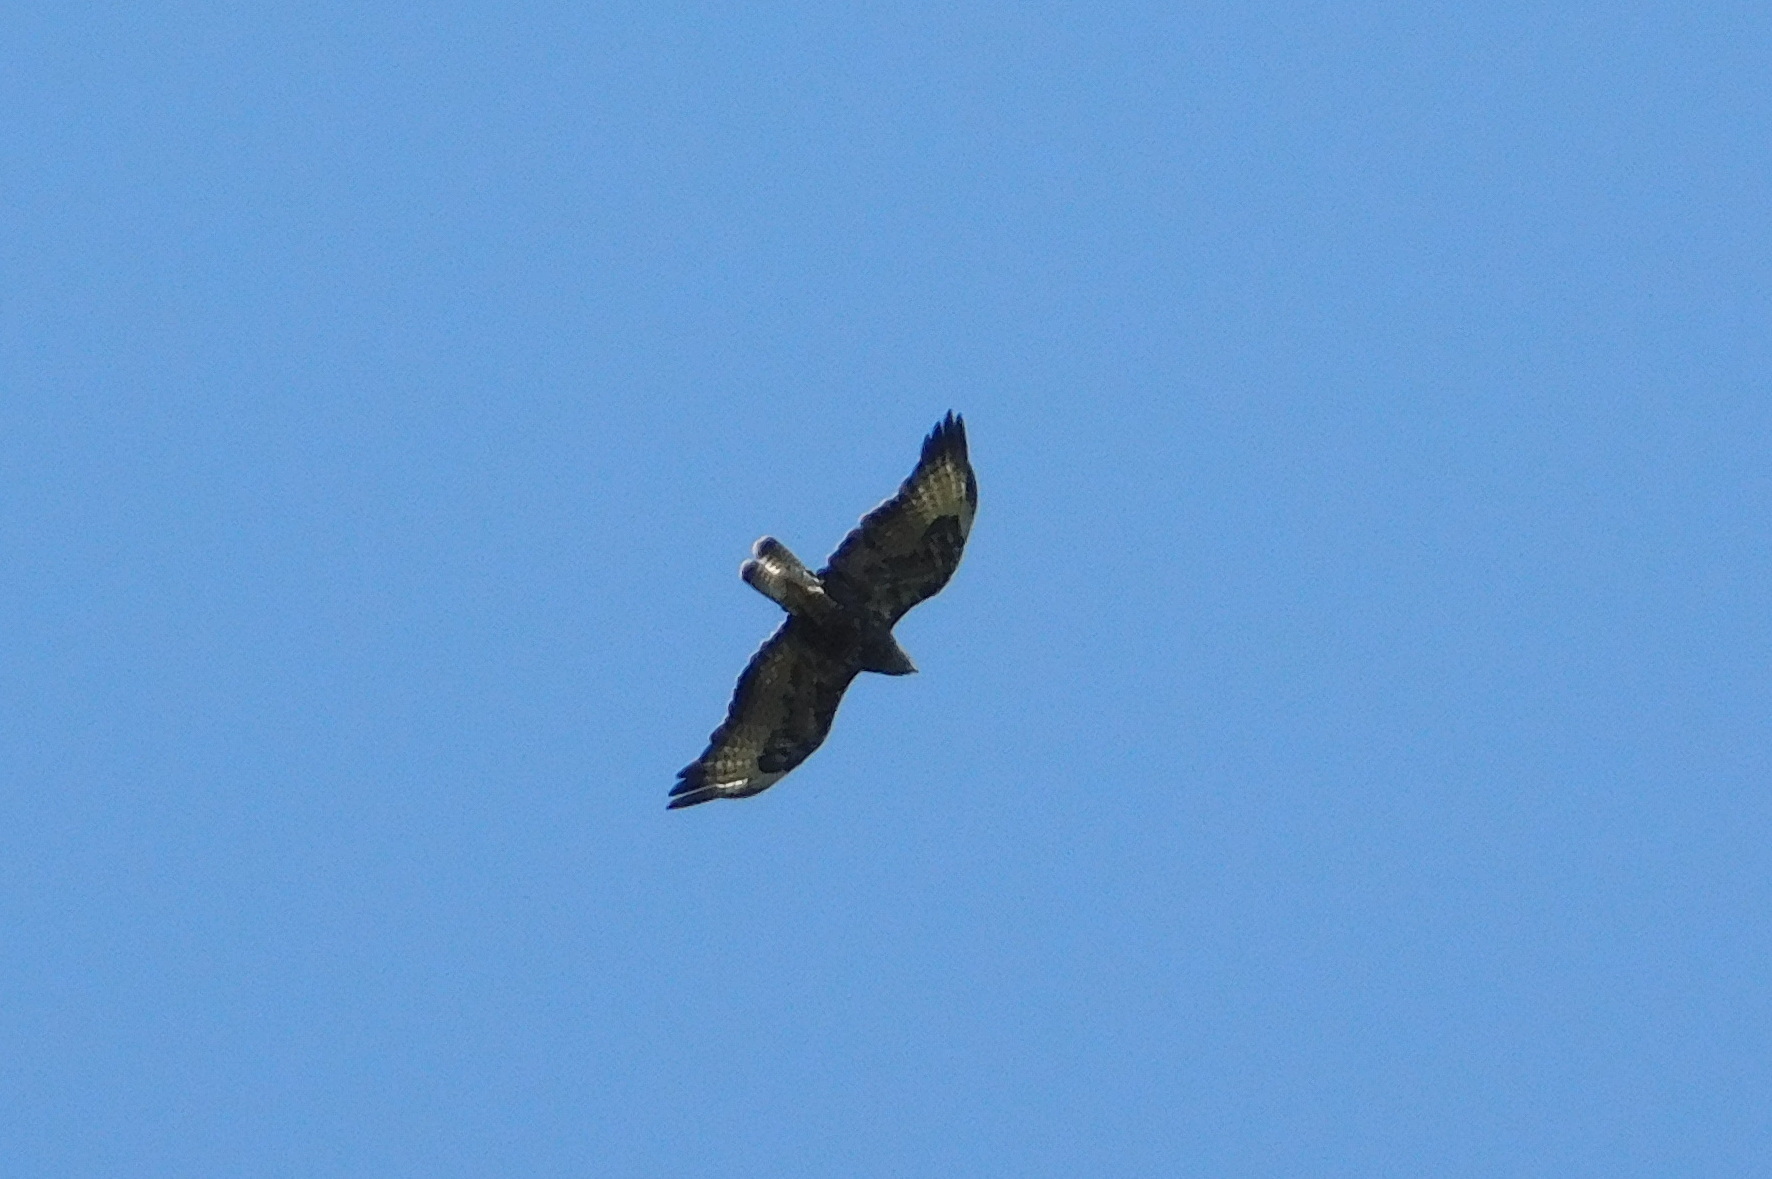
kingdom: Animalia
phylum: Chordata
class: Aves
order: Accipitriformes
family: Accipitridae
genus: Buteo
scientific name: Buteo buteo
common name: Common buzzard
